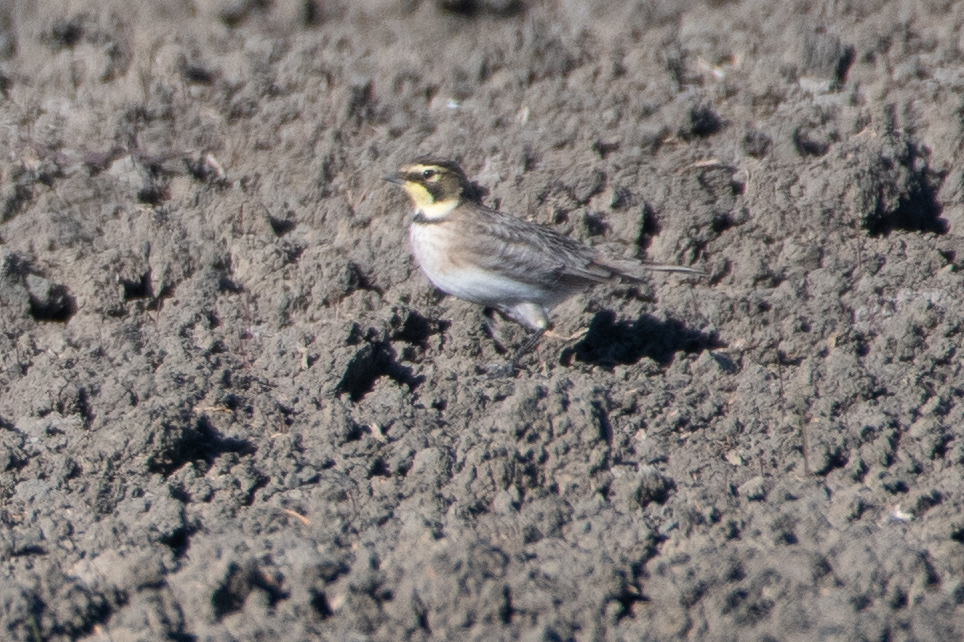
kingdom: Animalia
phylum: Chordata
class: Aves
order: Passeriformes
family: Alaudidae
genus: Eremophila
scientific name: Eremophila alpestris
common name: Horned lark
